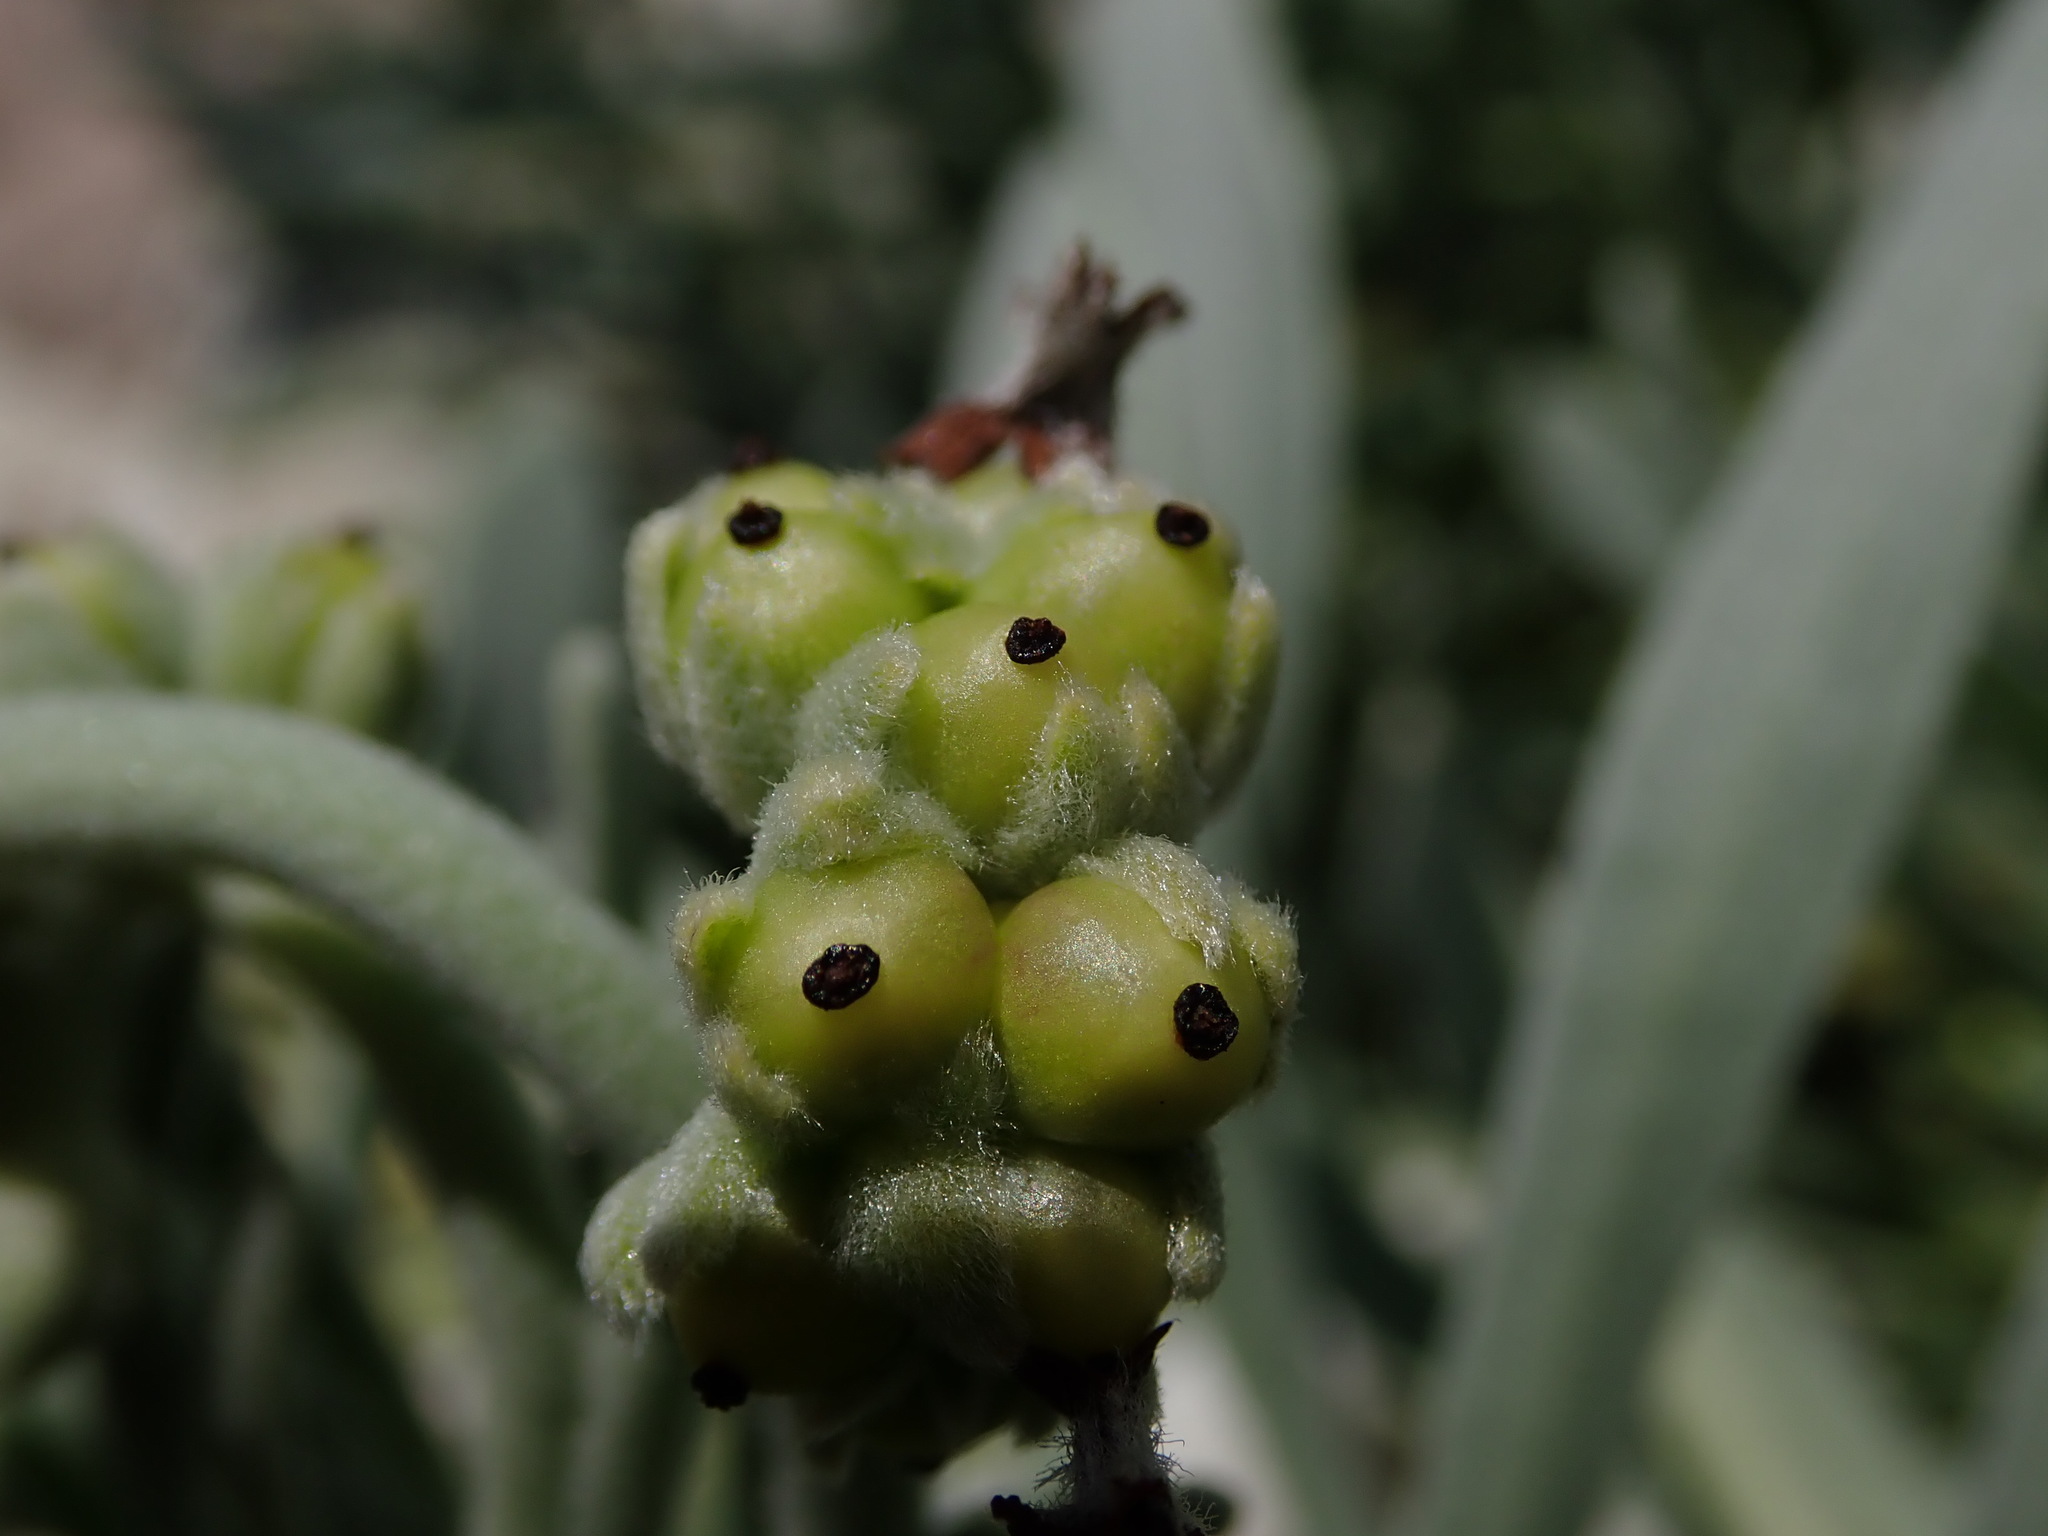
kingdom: Plantae
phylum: Tracheophyta
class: Magnoliopsida
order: Boraginales
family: Heliotropiaceae
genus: Tournefortia
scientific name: Tournefortia gnaphalodes
